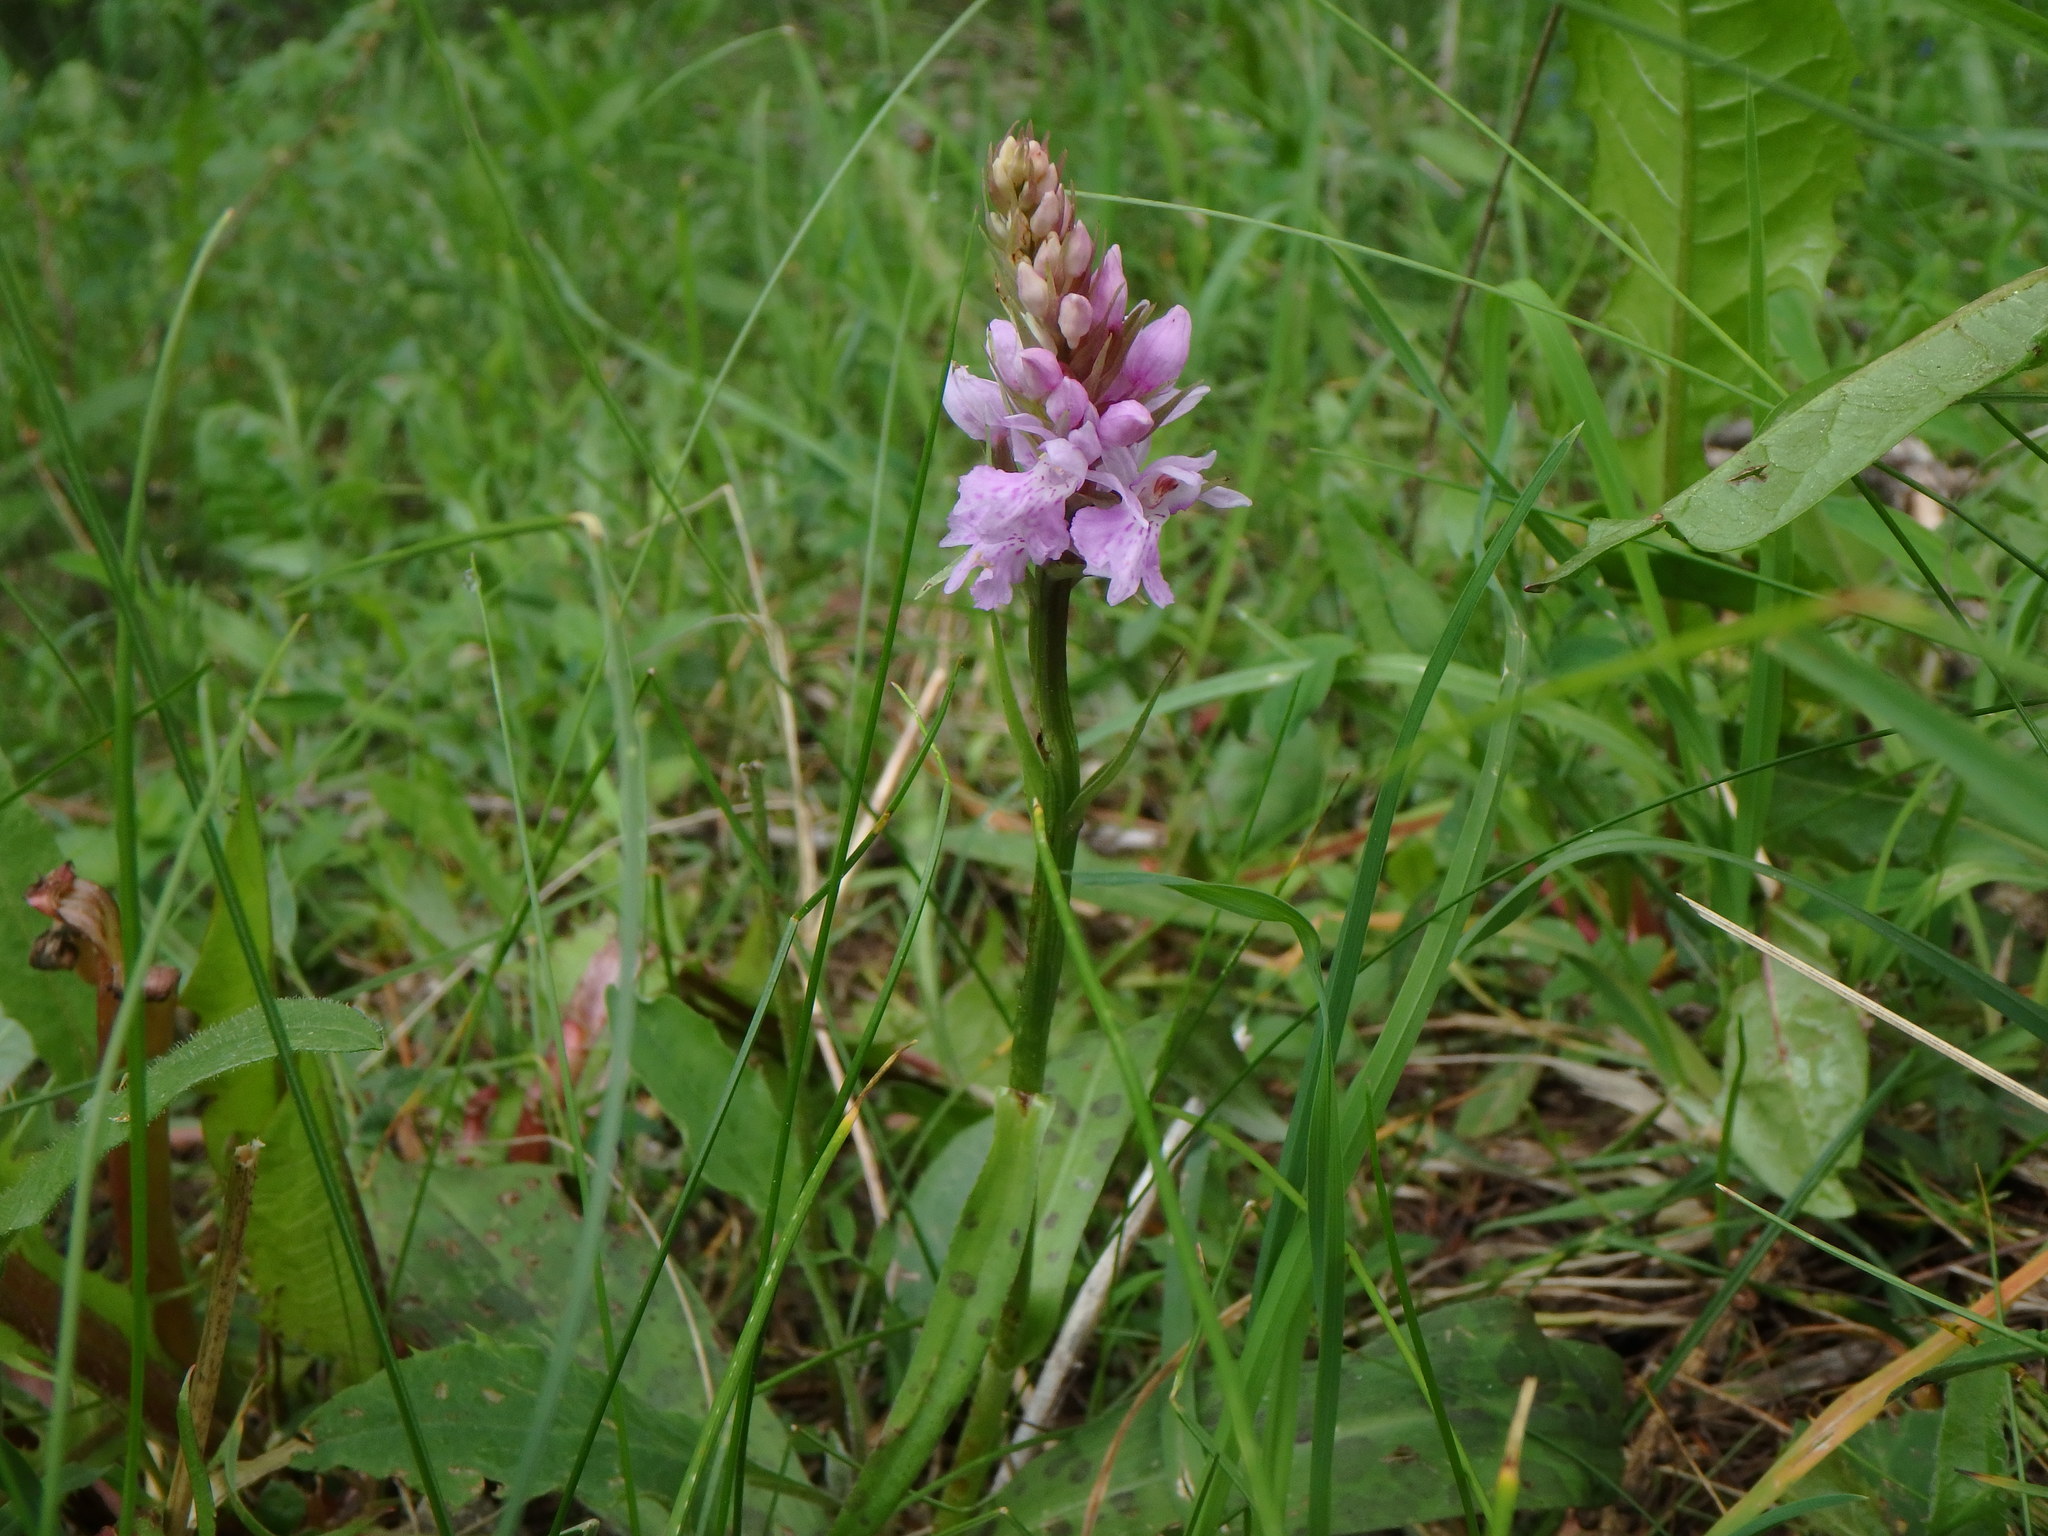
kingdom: Plantae
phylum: Tracheophyta
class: Liliopsida
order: Asparagales
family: Orchidaceae
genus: Dactylorhiza
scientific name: Dactylorhiza maculata
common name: Heath spotted-orchid
